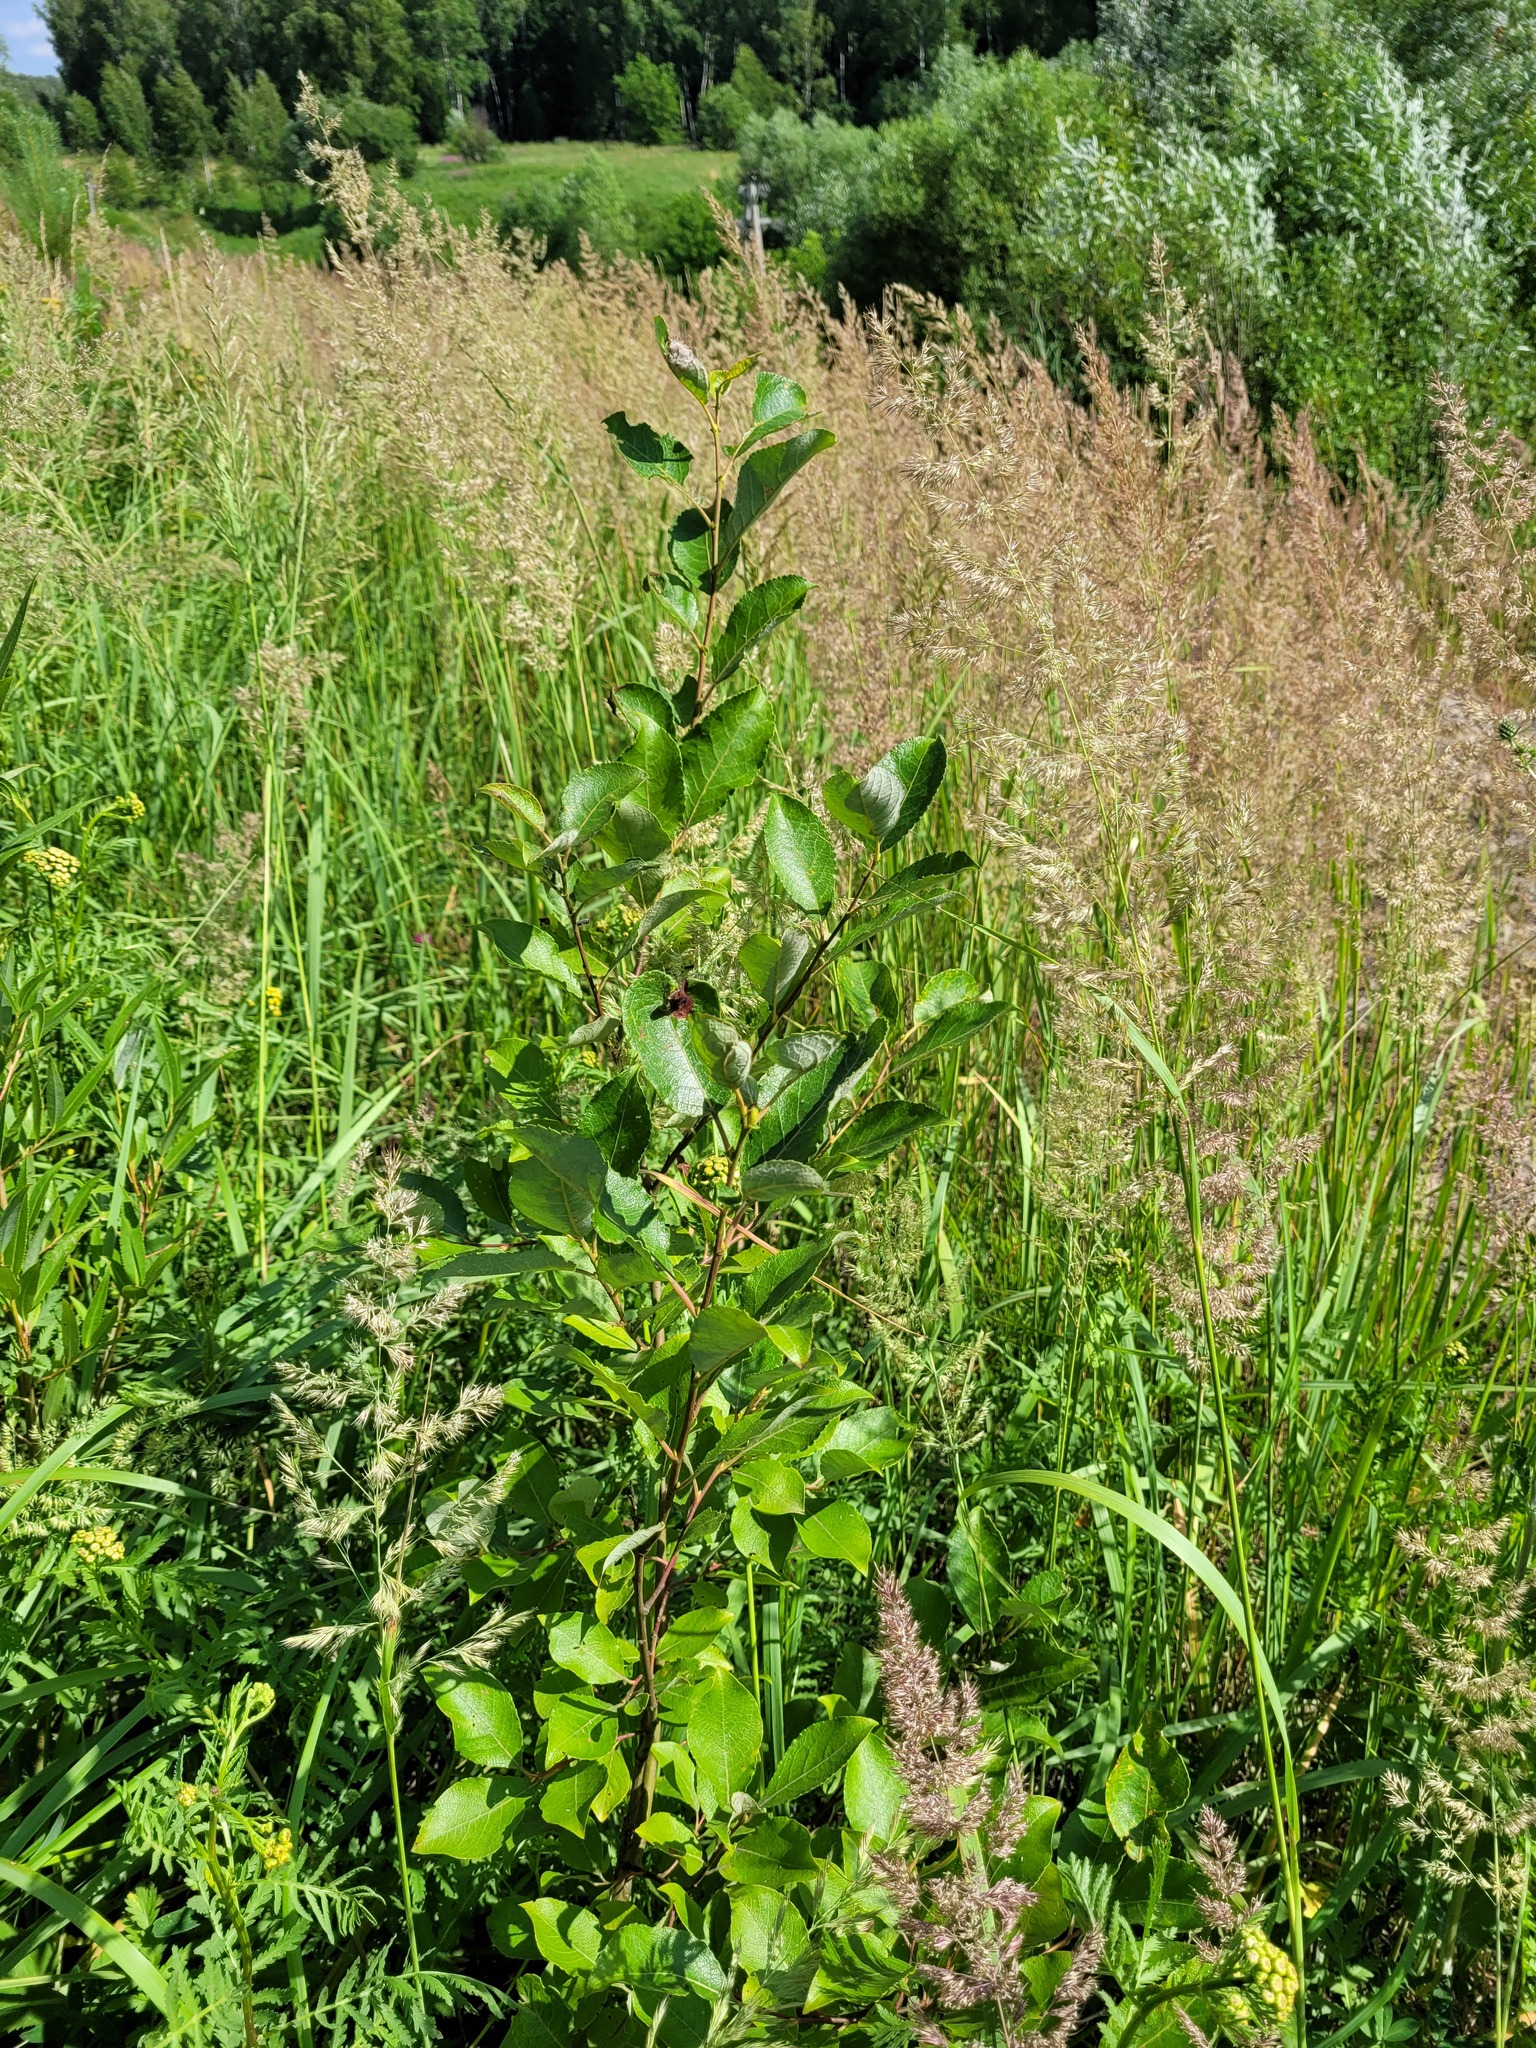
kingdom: Plantae
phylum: Tracheophyta
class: Magnoliopsida
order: Malpighiales
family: Salicaceae
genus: Salix
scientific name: Salix caprea
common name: Goat willow
